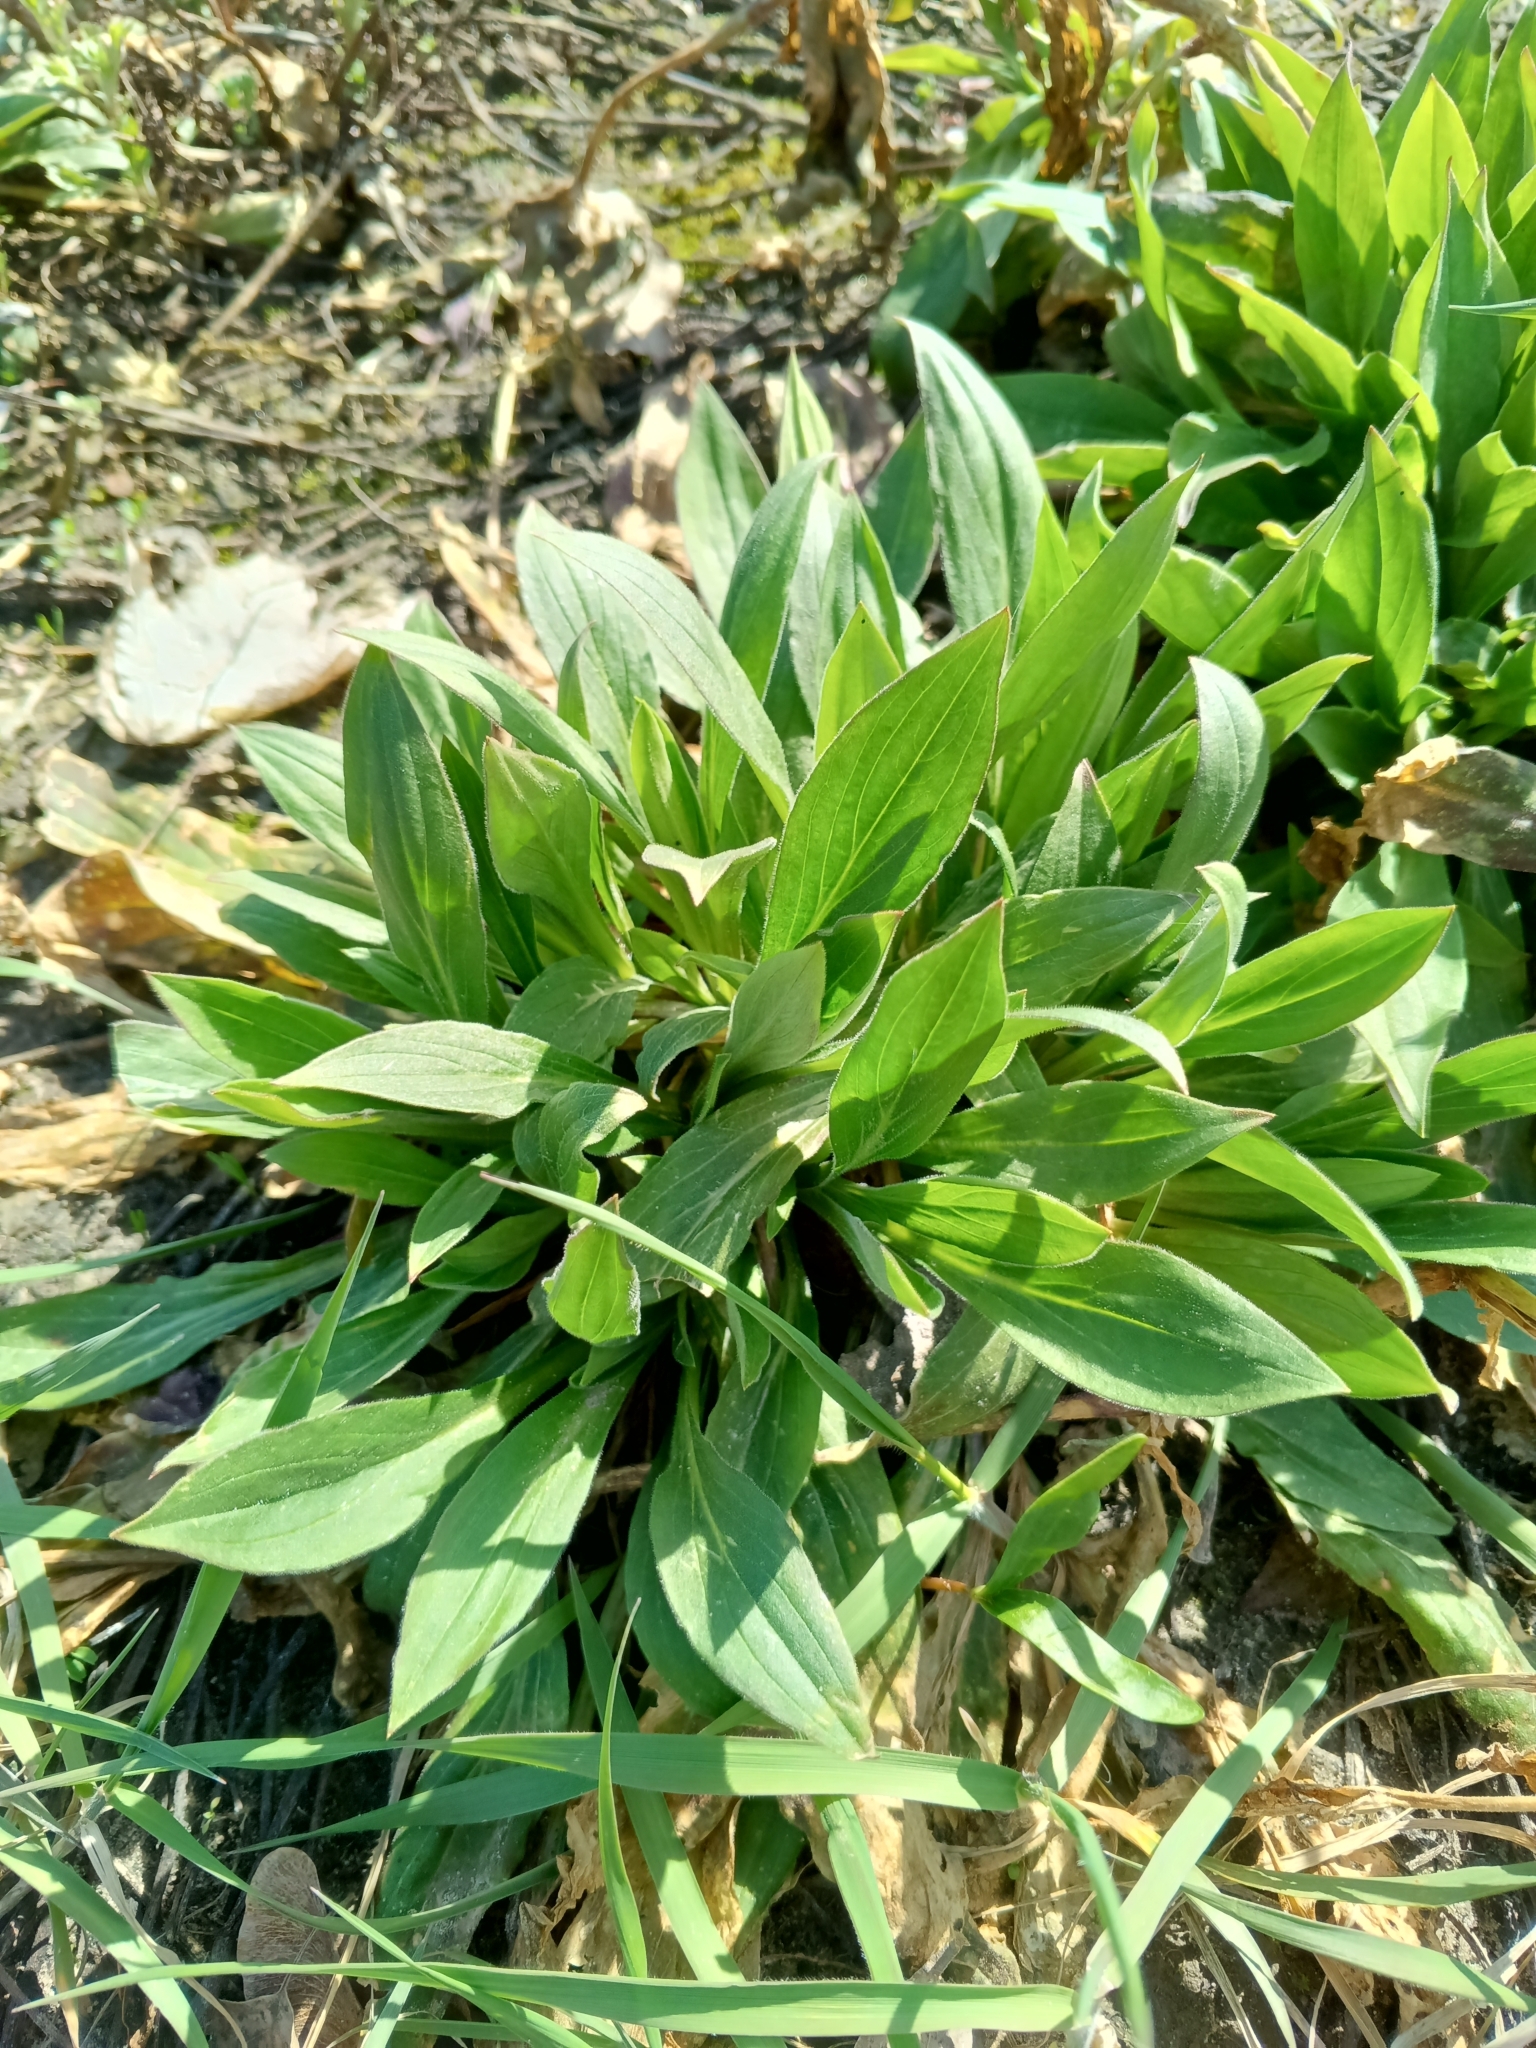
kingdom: Plantae
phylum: Tracheophyta
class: Magnoliopsida
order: Caryophyllales
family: Caryophyllaceae
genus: Silene
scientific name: Silene latifolia
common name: White campion
